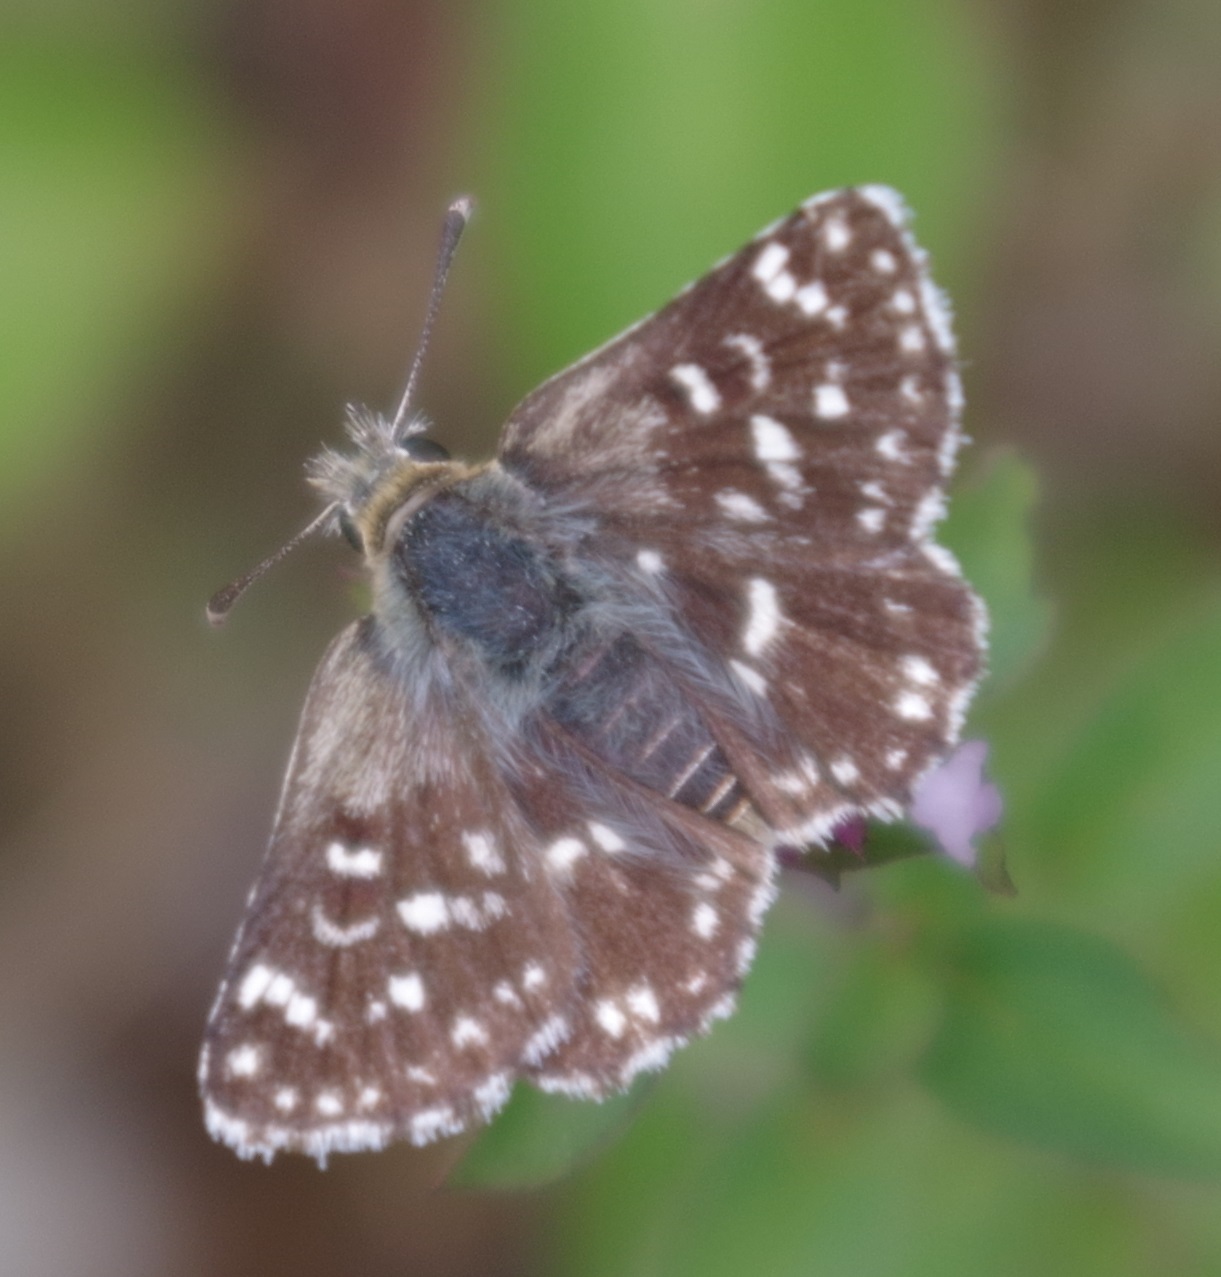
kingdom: Animalia
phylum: Arthropoda
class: Insecta
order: Lepidoptera
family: Hesperiidae
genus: Spialia
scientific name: Spialia sertorius
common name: Red underwing skipper
